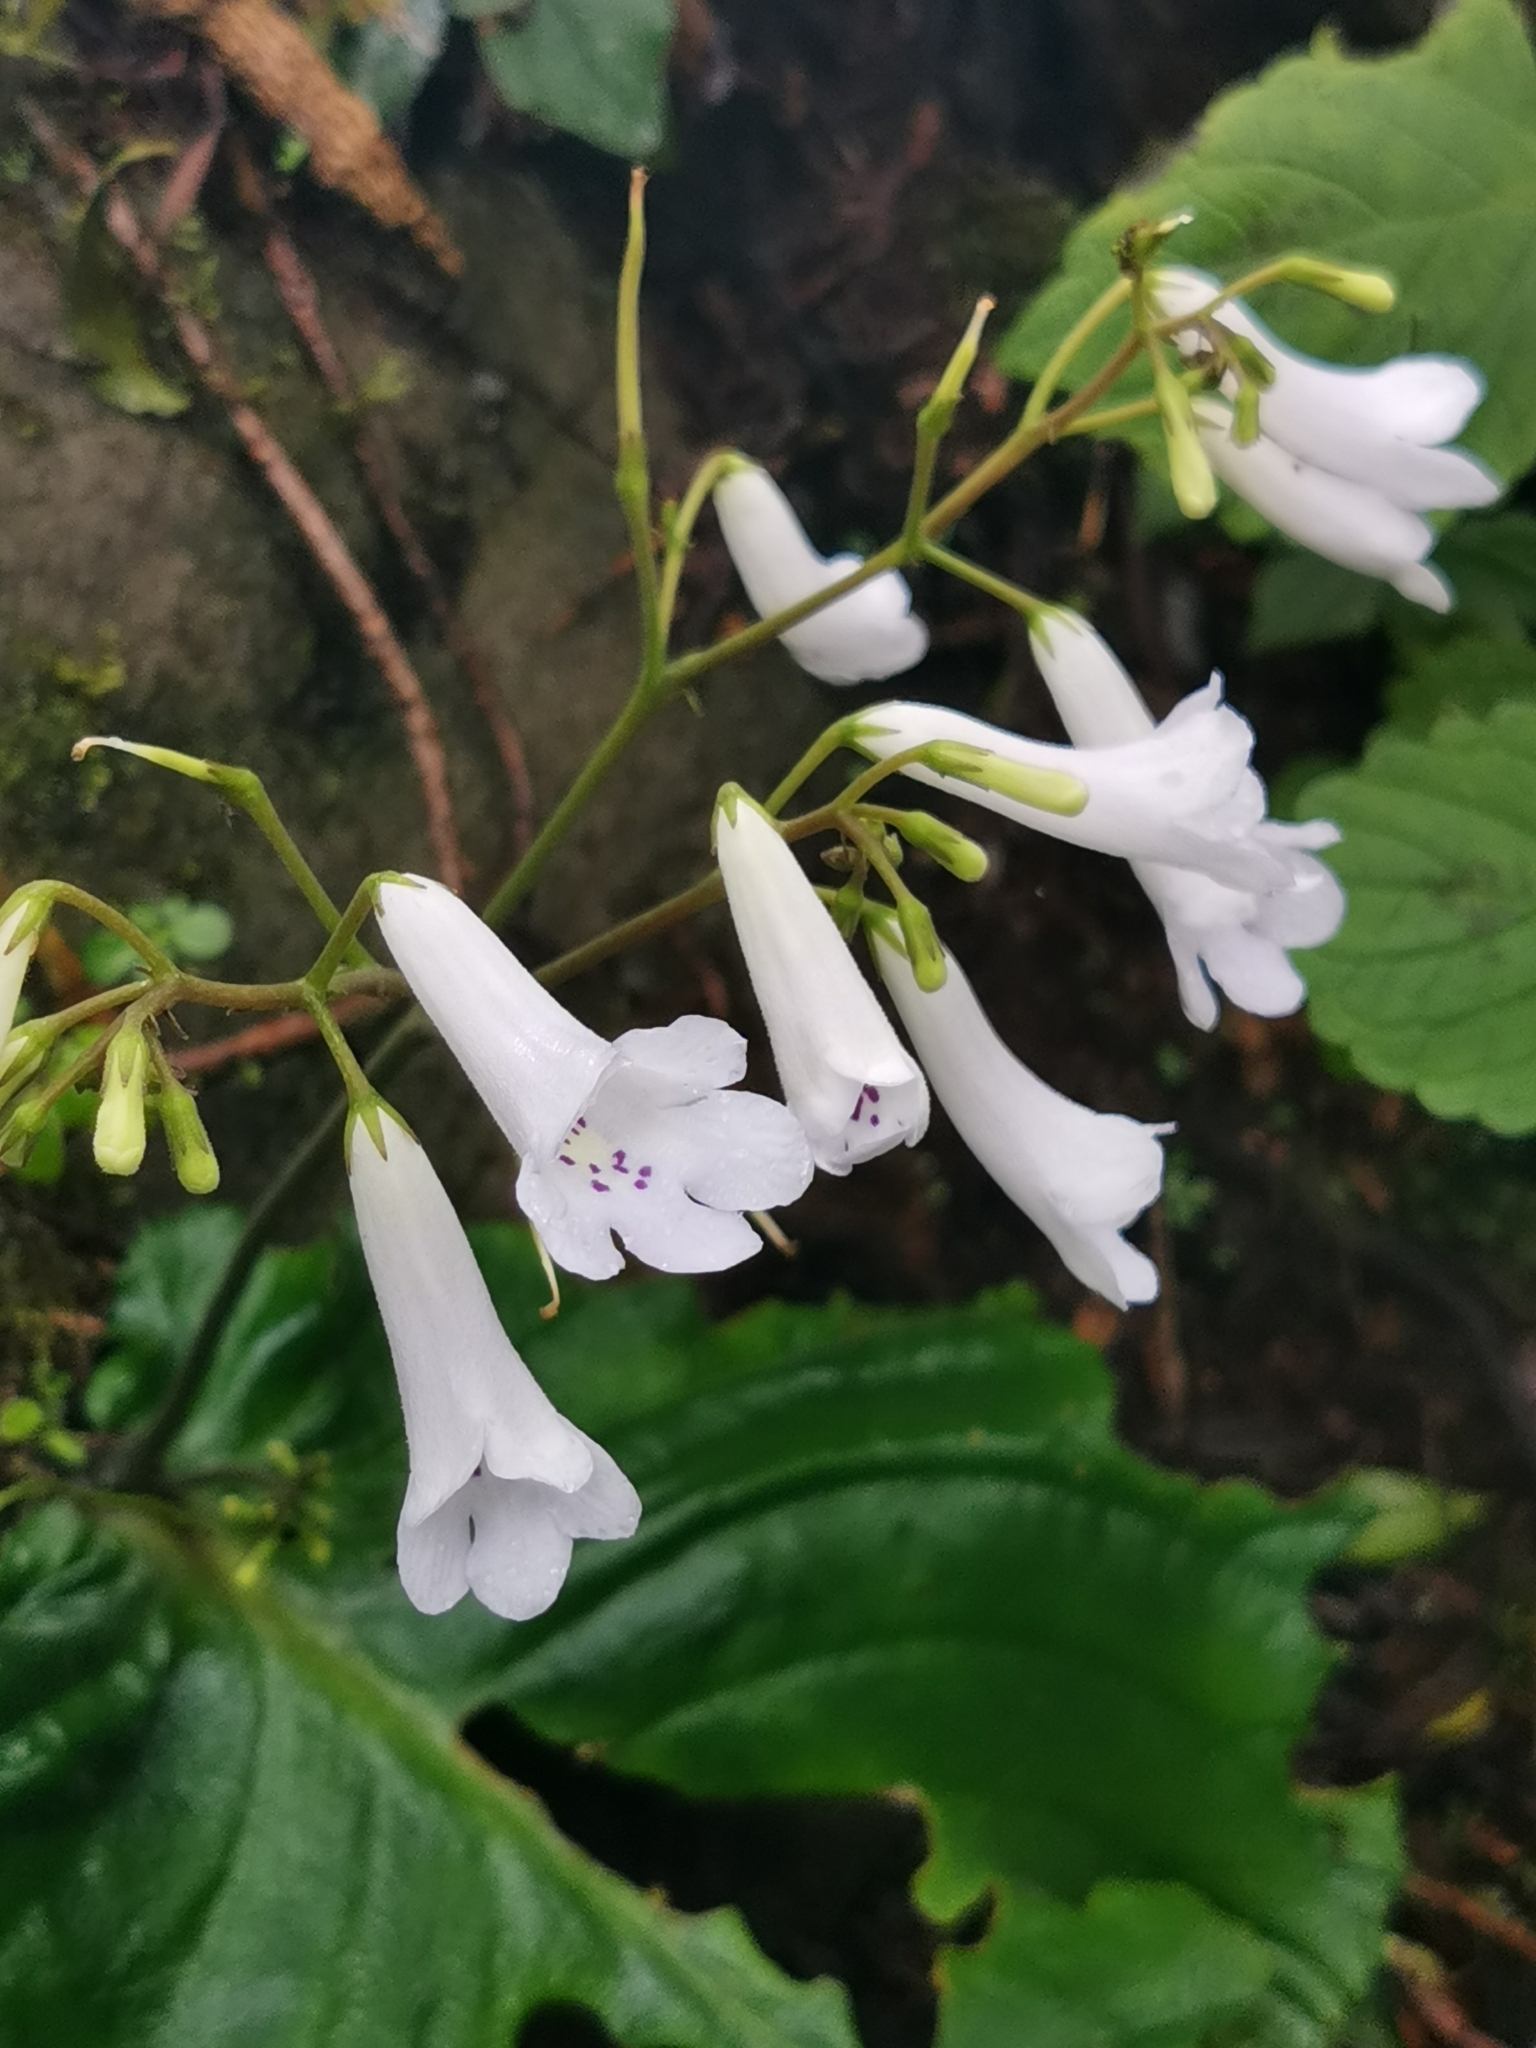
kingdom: Plantae
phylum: Tracheophyta
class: Magnoliopsida
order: Lamiales
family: Gesneriaceae
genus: Streptocarpus
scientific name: Streptocarpus wilmsii
